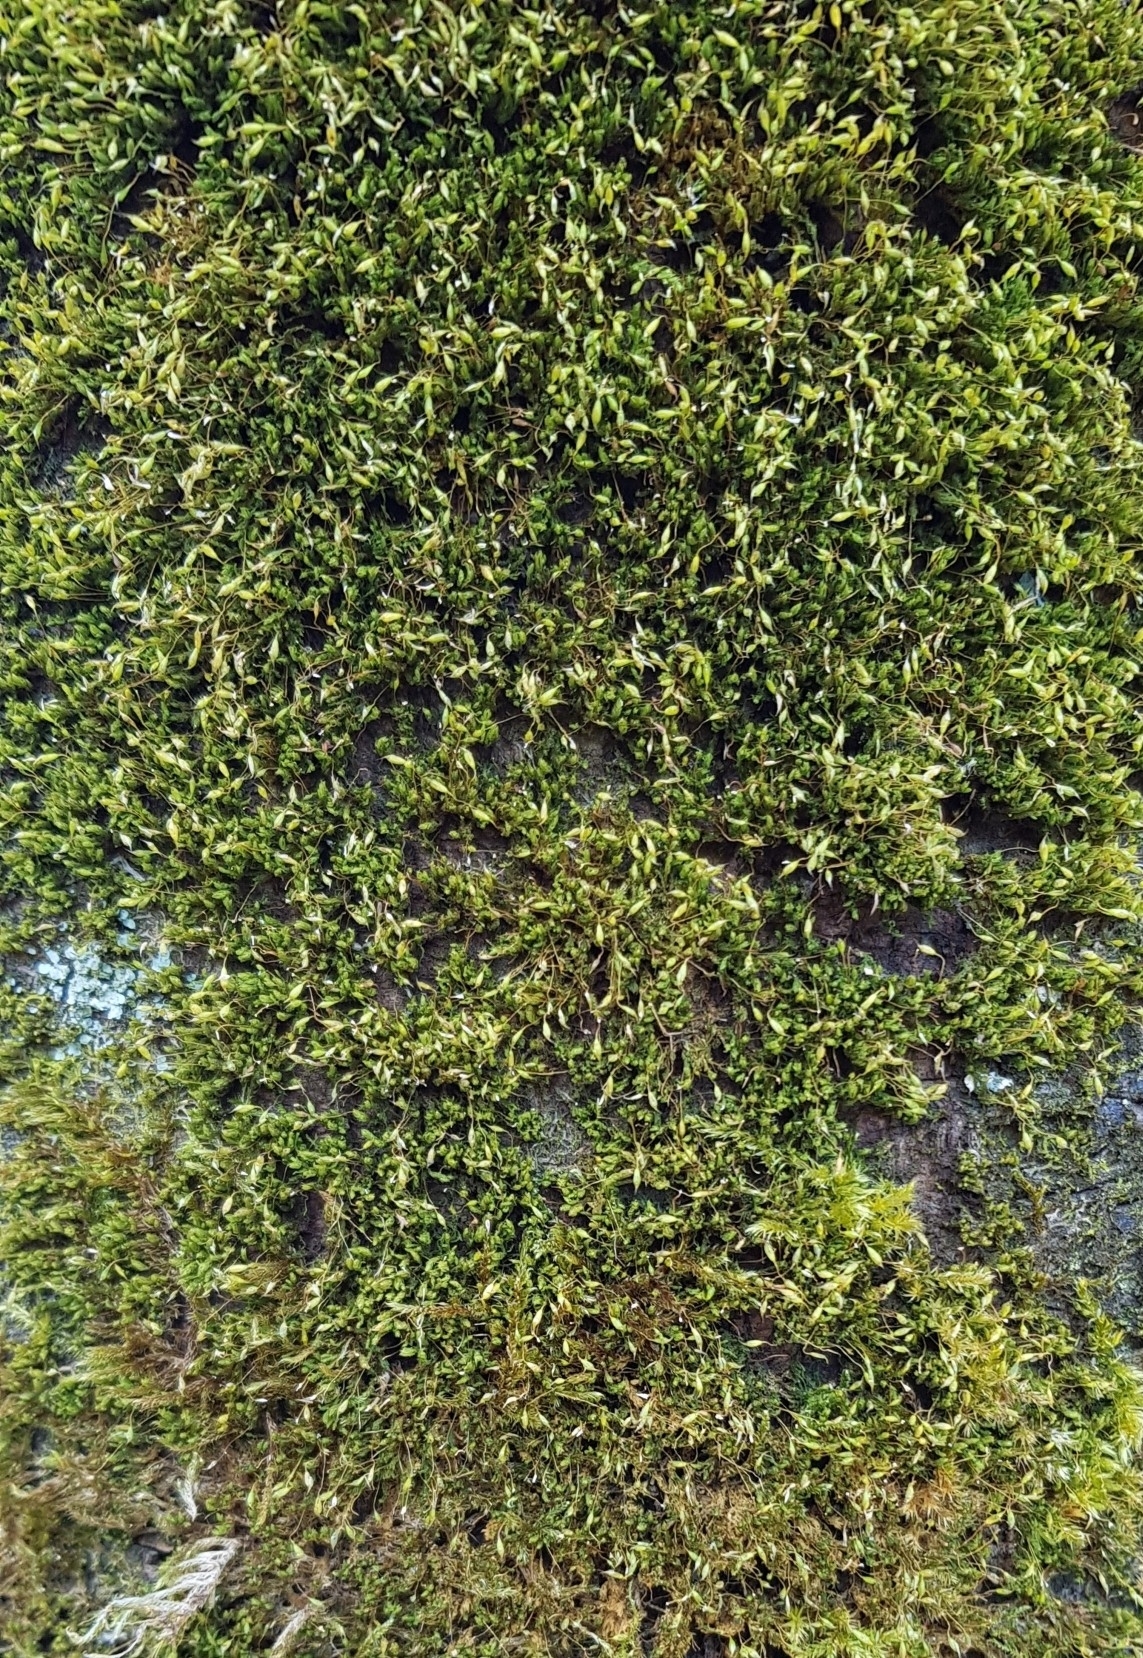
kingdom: Plantae
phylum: Bryophyta
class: Bryopsida
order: Orthotrichales
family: Orthotrichaceae
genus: Zygodon
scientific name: Zygodon conoideus
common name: Lesser yoke-moss
